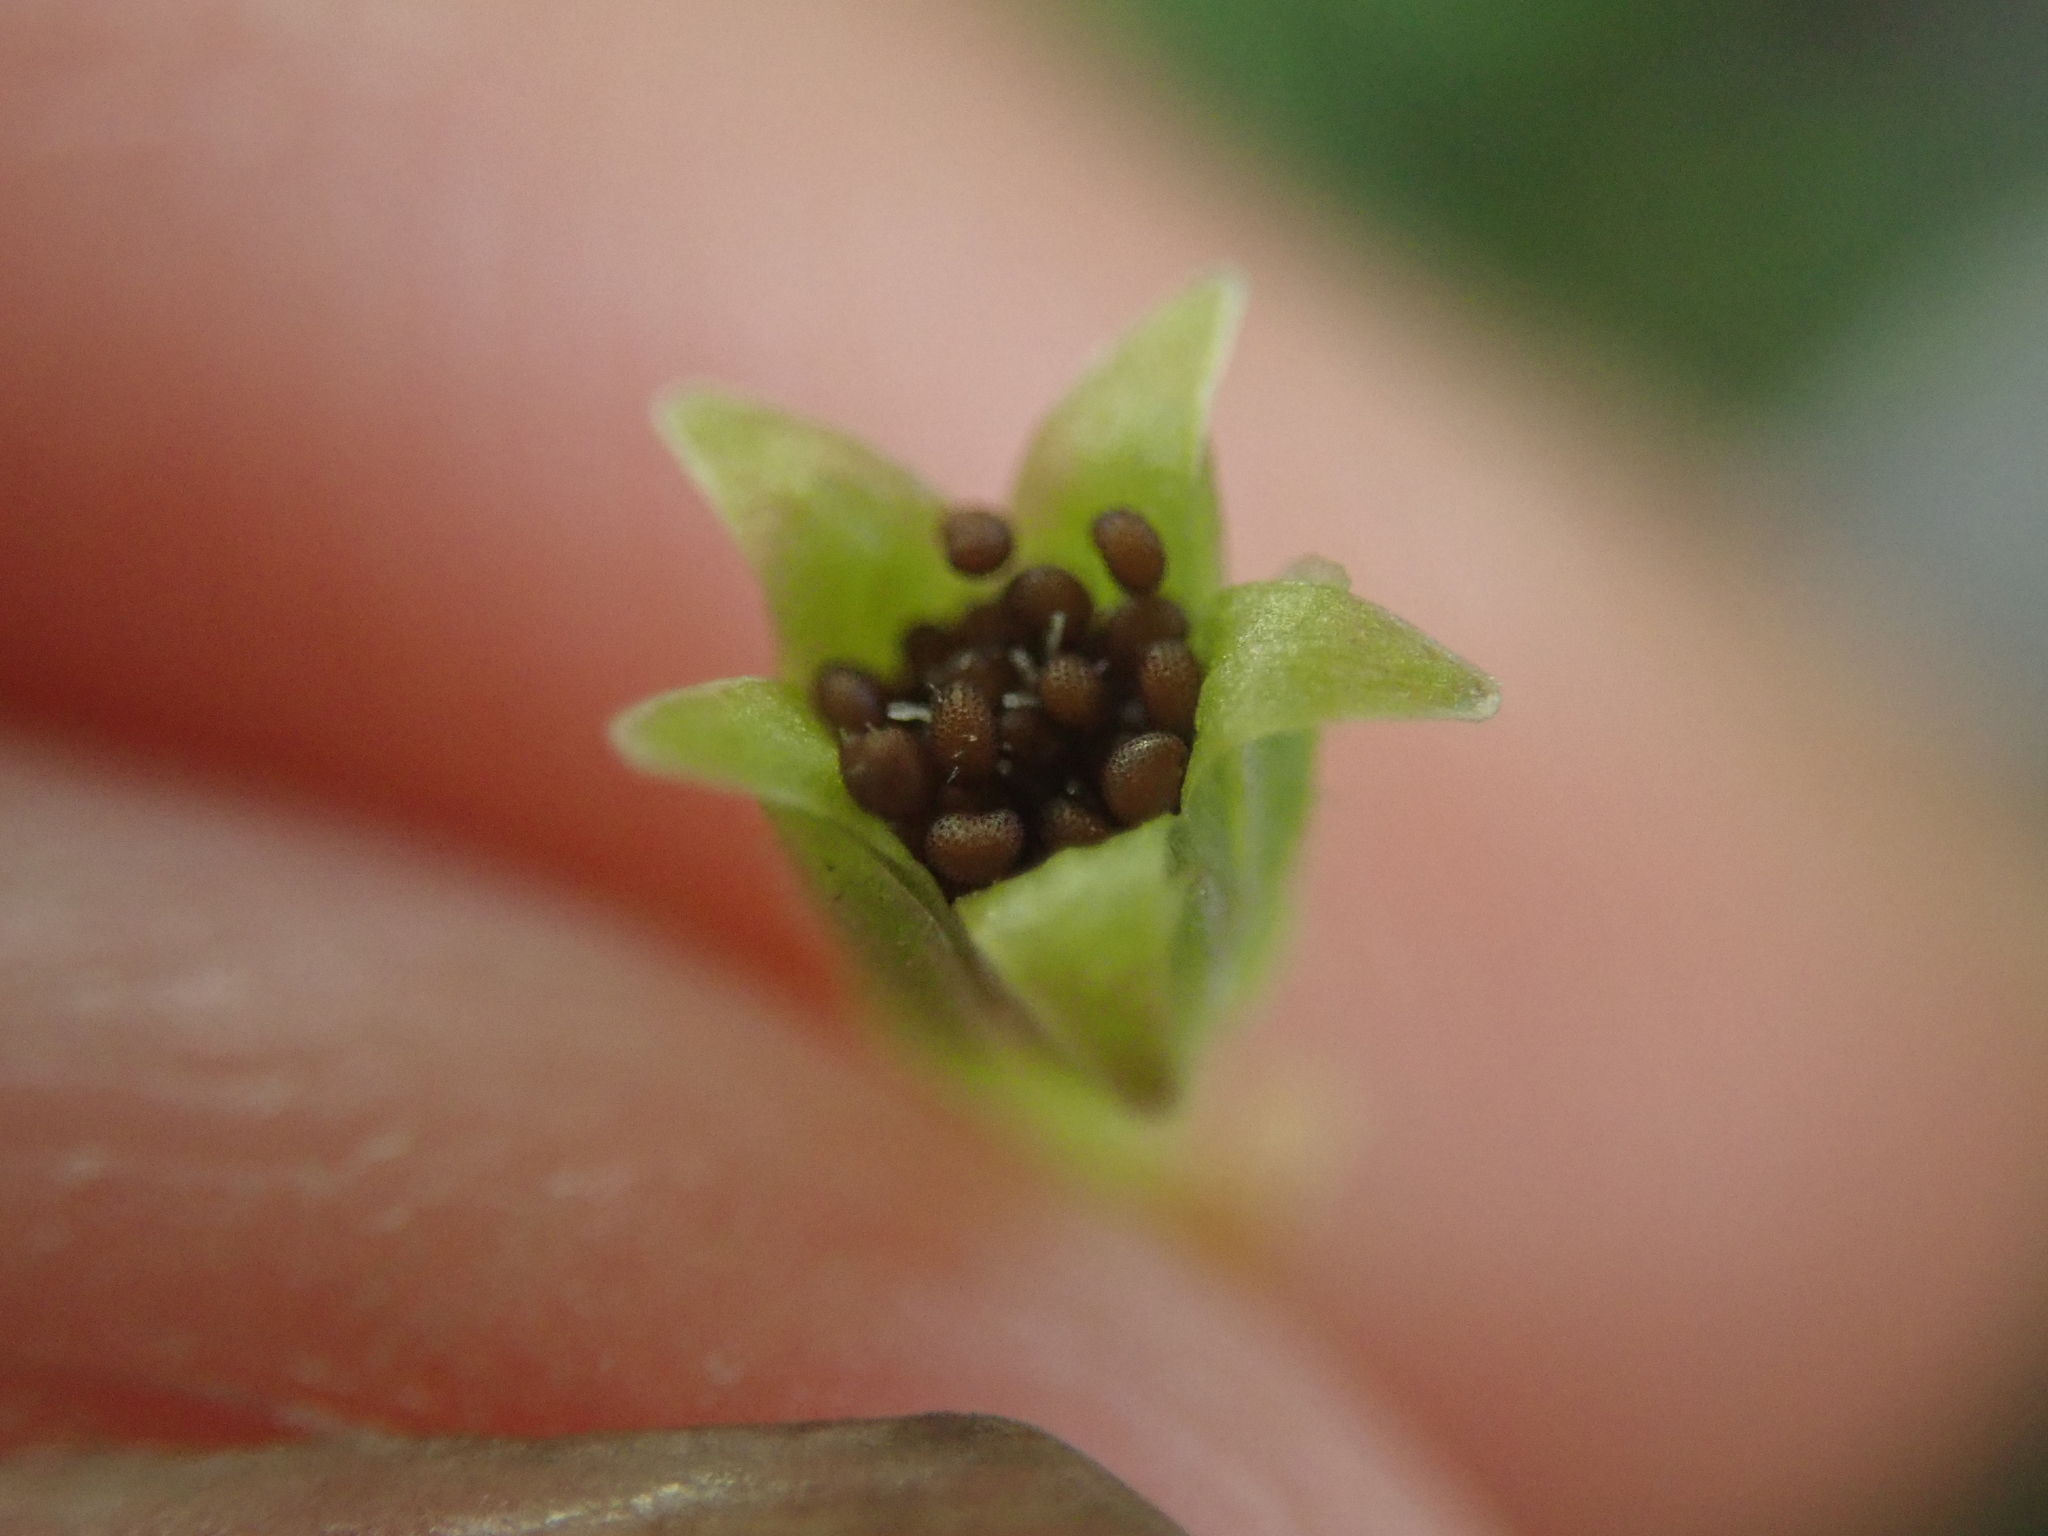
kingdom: Plantae
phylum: Tracheophyta
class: Magnoliopsida
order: Caryophyllales
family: Caryophyllaceae
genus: Sagina
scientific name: Sagina japonica
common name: Japanese pearlwort
